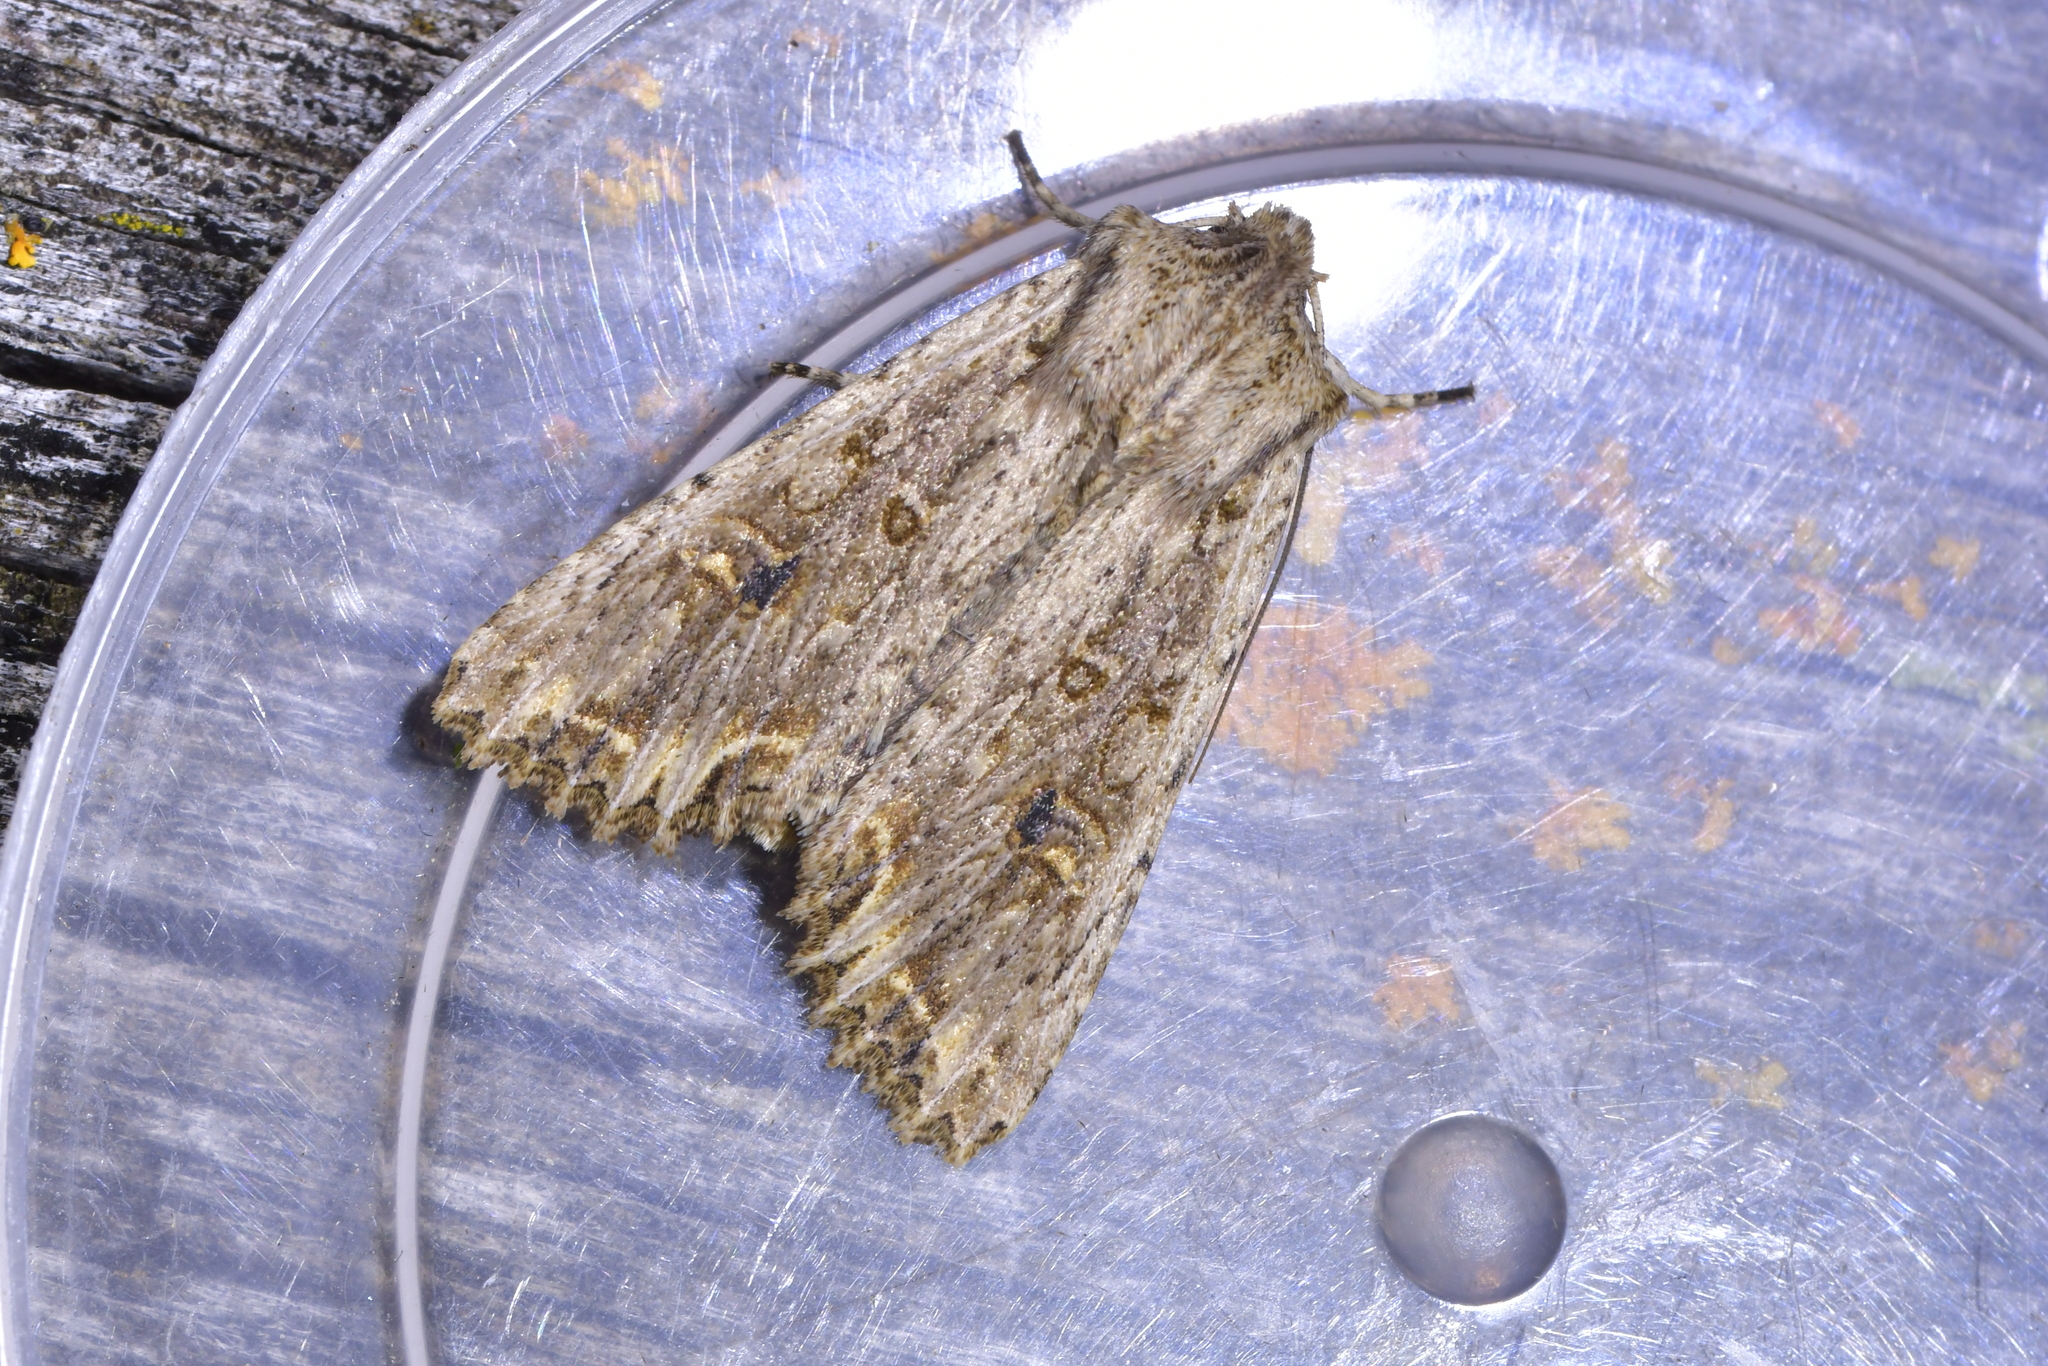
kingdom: Animalia
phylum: Arthropoda
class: Insecta
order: Lepidoptera
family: Noctuidae
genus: Ichneutica
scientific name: Ichneutica lignana
